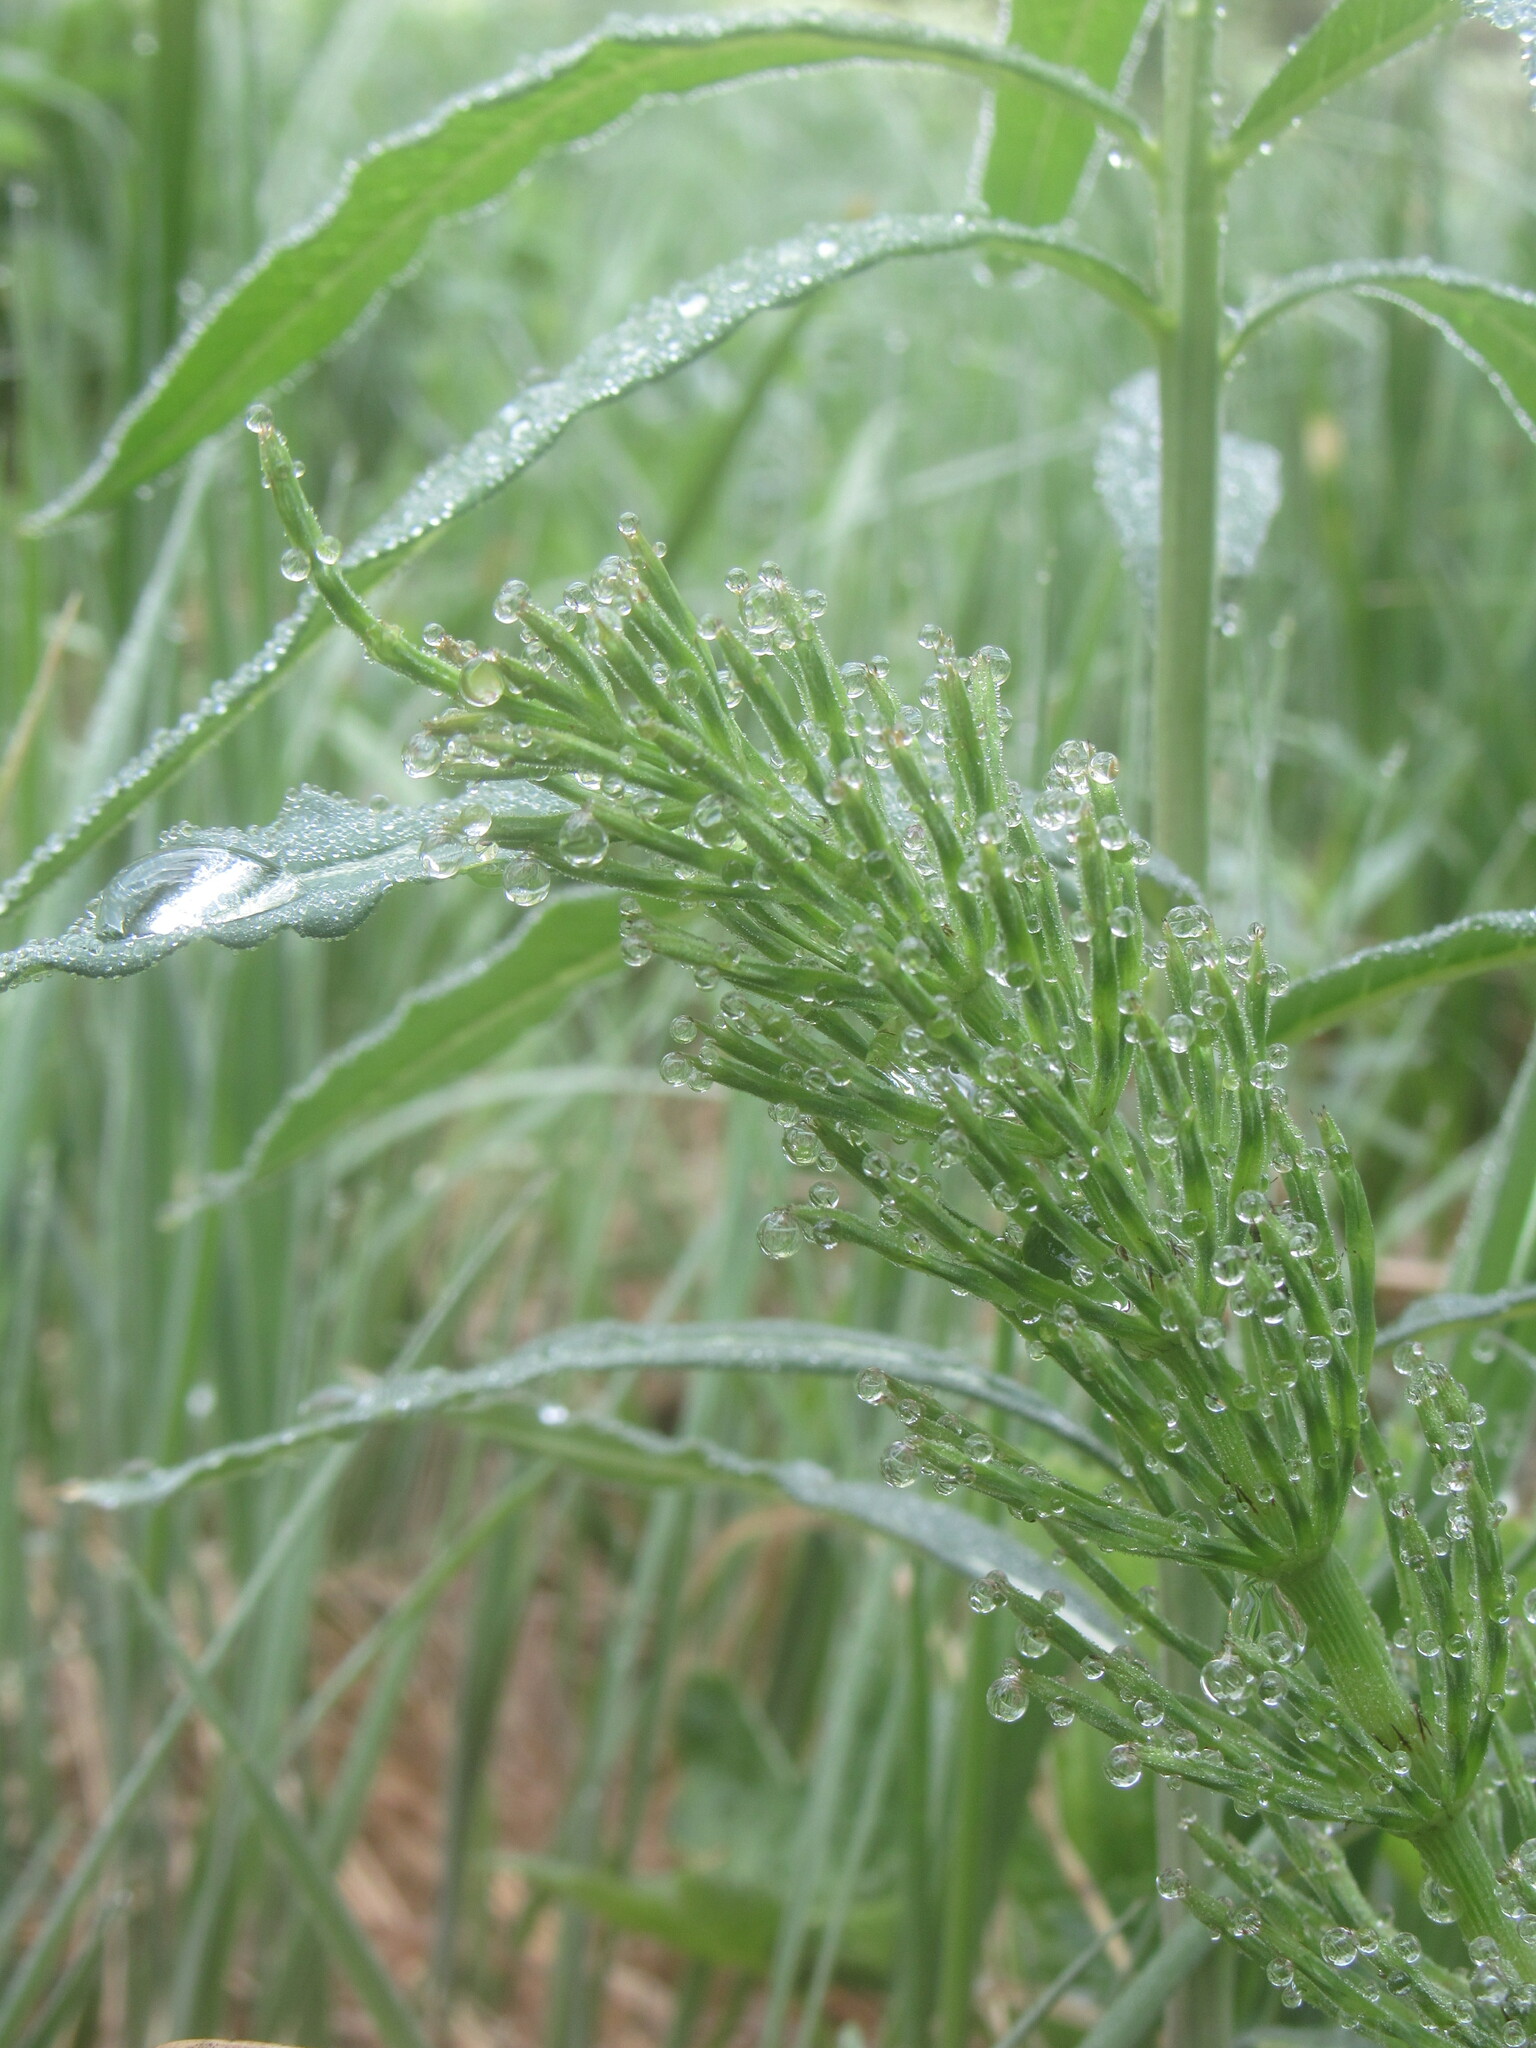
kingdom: Plantae
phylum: Tracheophyta
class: Polypodiopsida
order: Equisetales
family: Equisetaceae
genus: Equisetum
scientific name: Equisetum arvense
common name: Field horsetail
